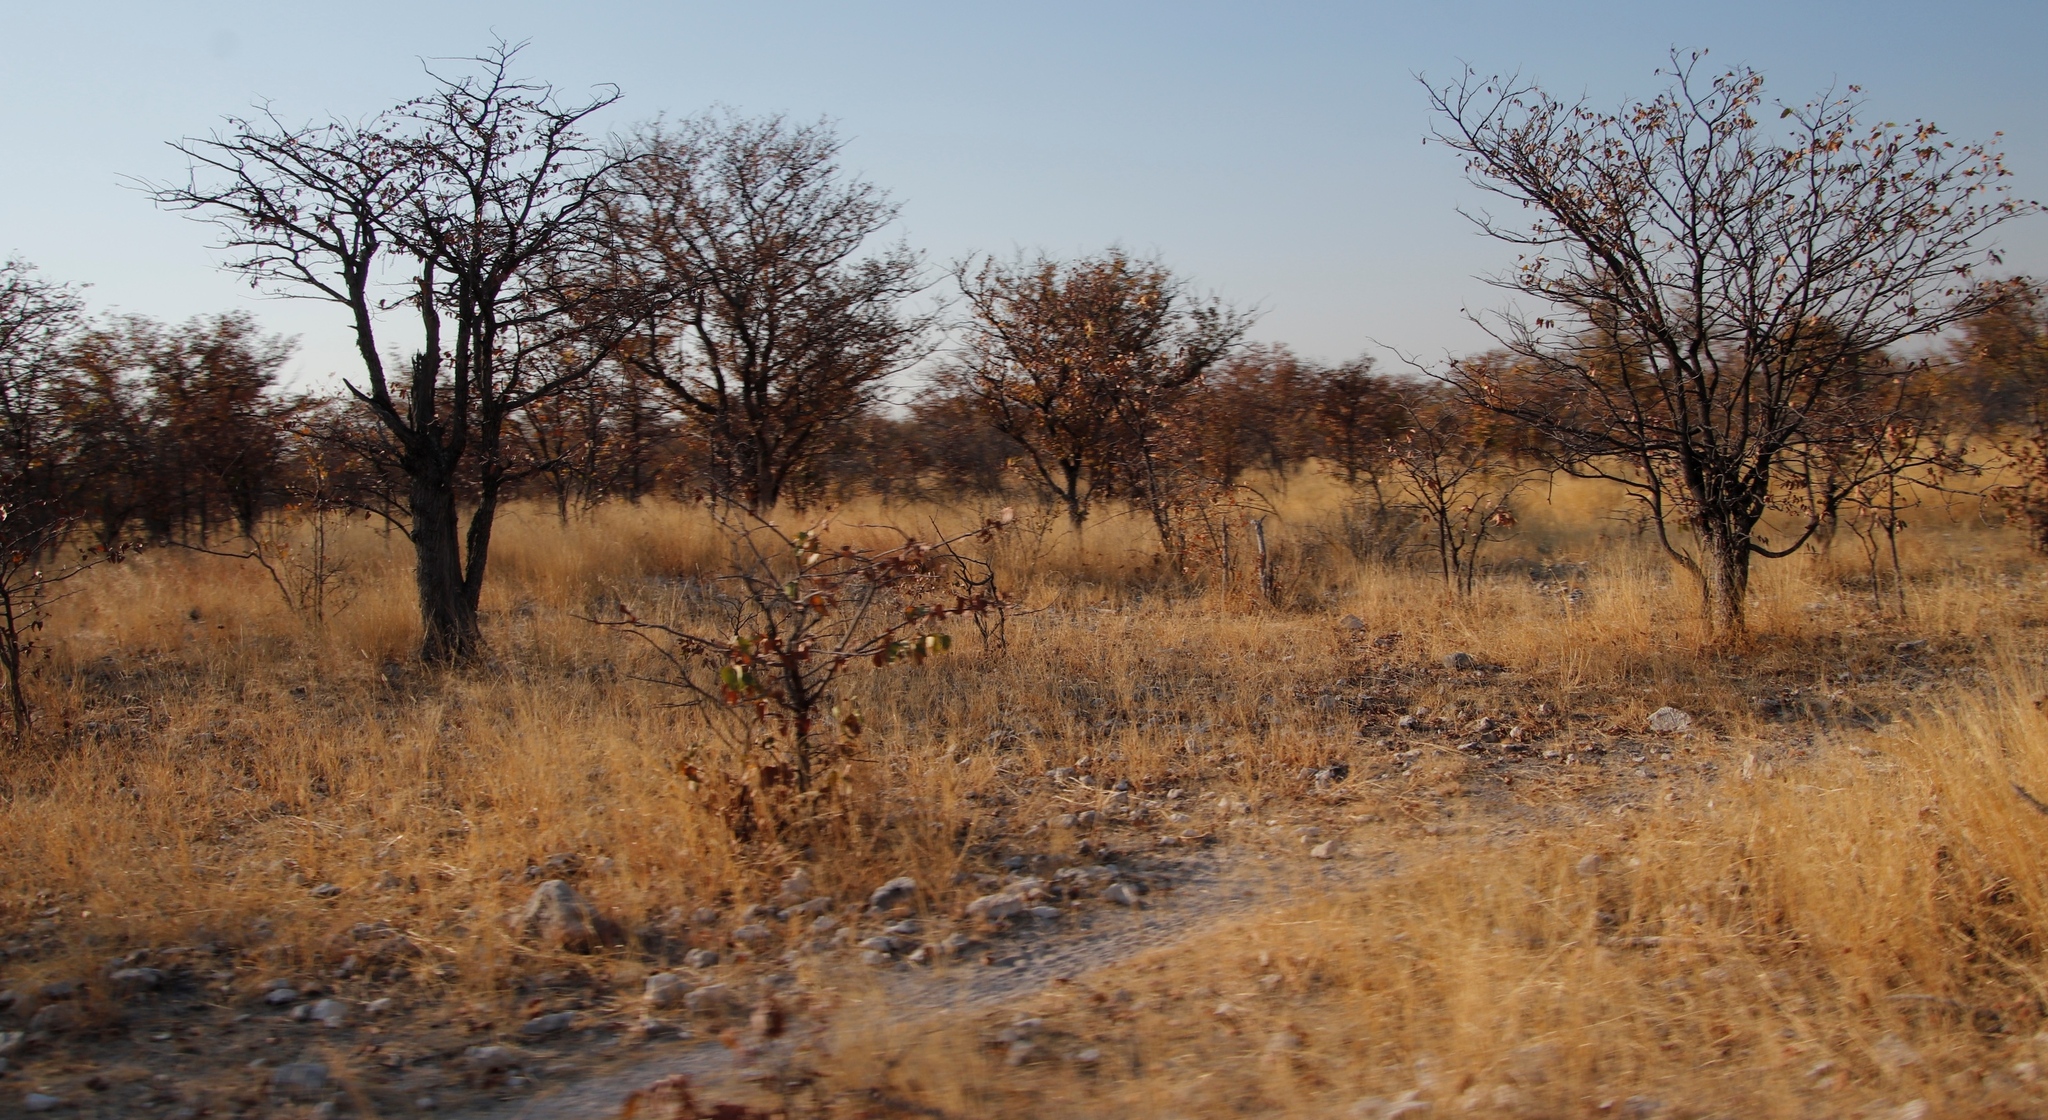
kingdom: Plantae
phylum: Tracheophyta
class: Magnoliopsida
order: Fabales
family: Fabaceae
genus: Colophospermum
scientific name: Colophospermum mopane
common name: Mopane
